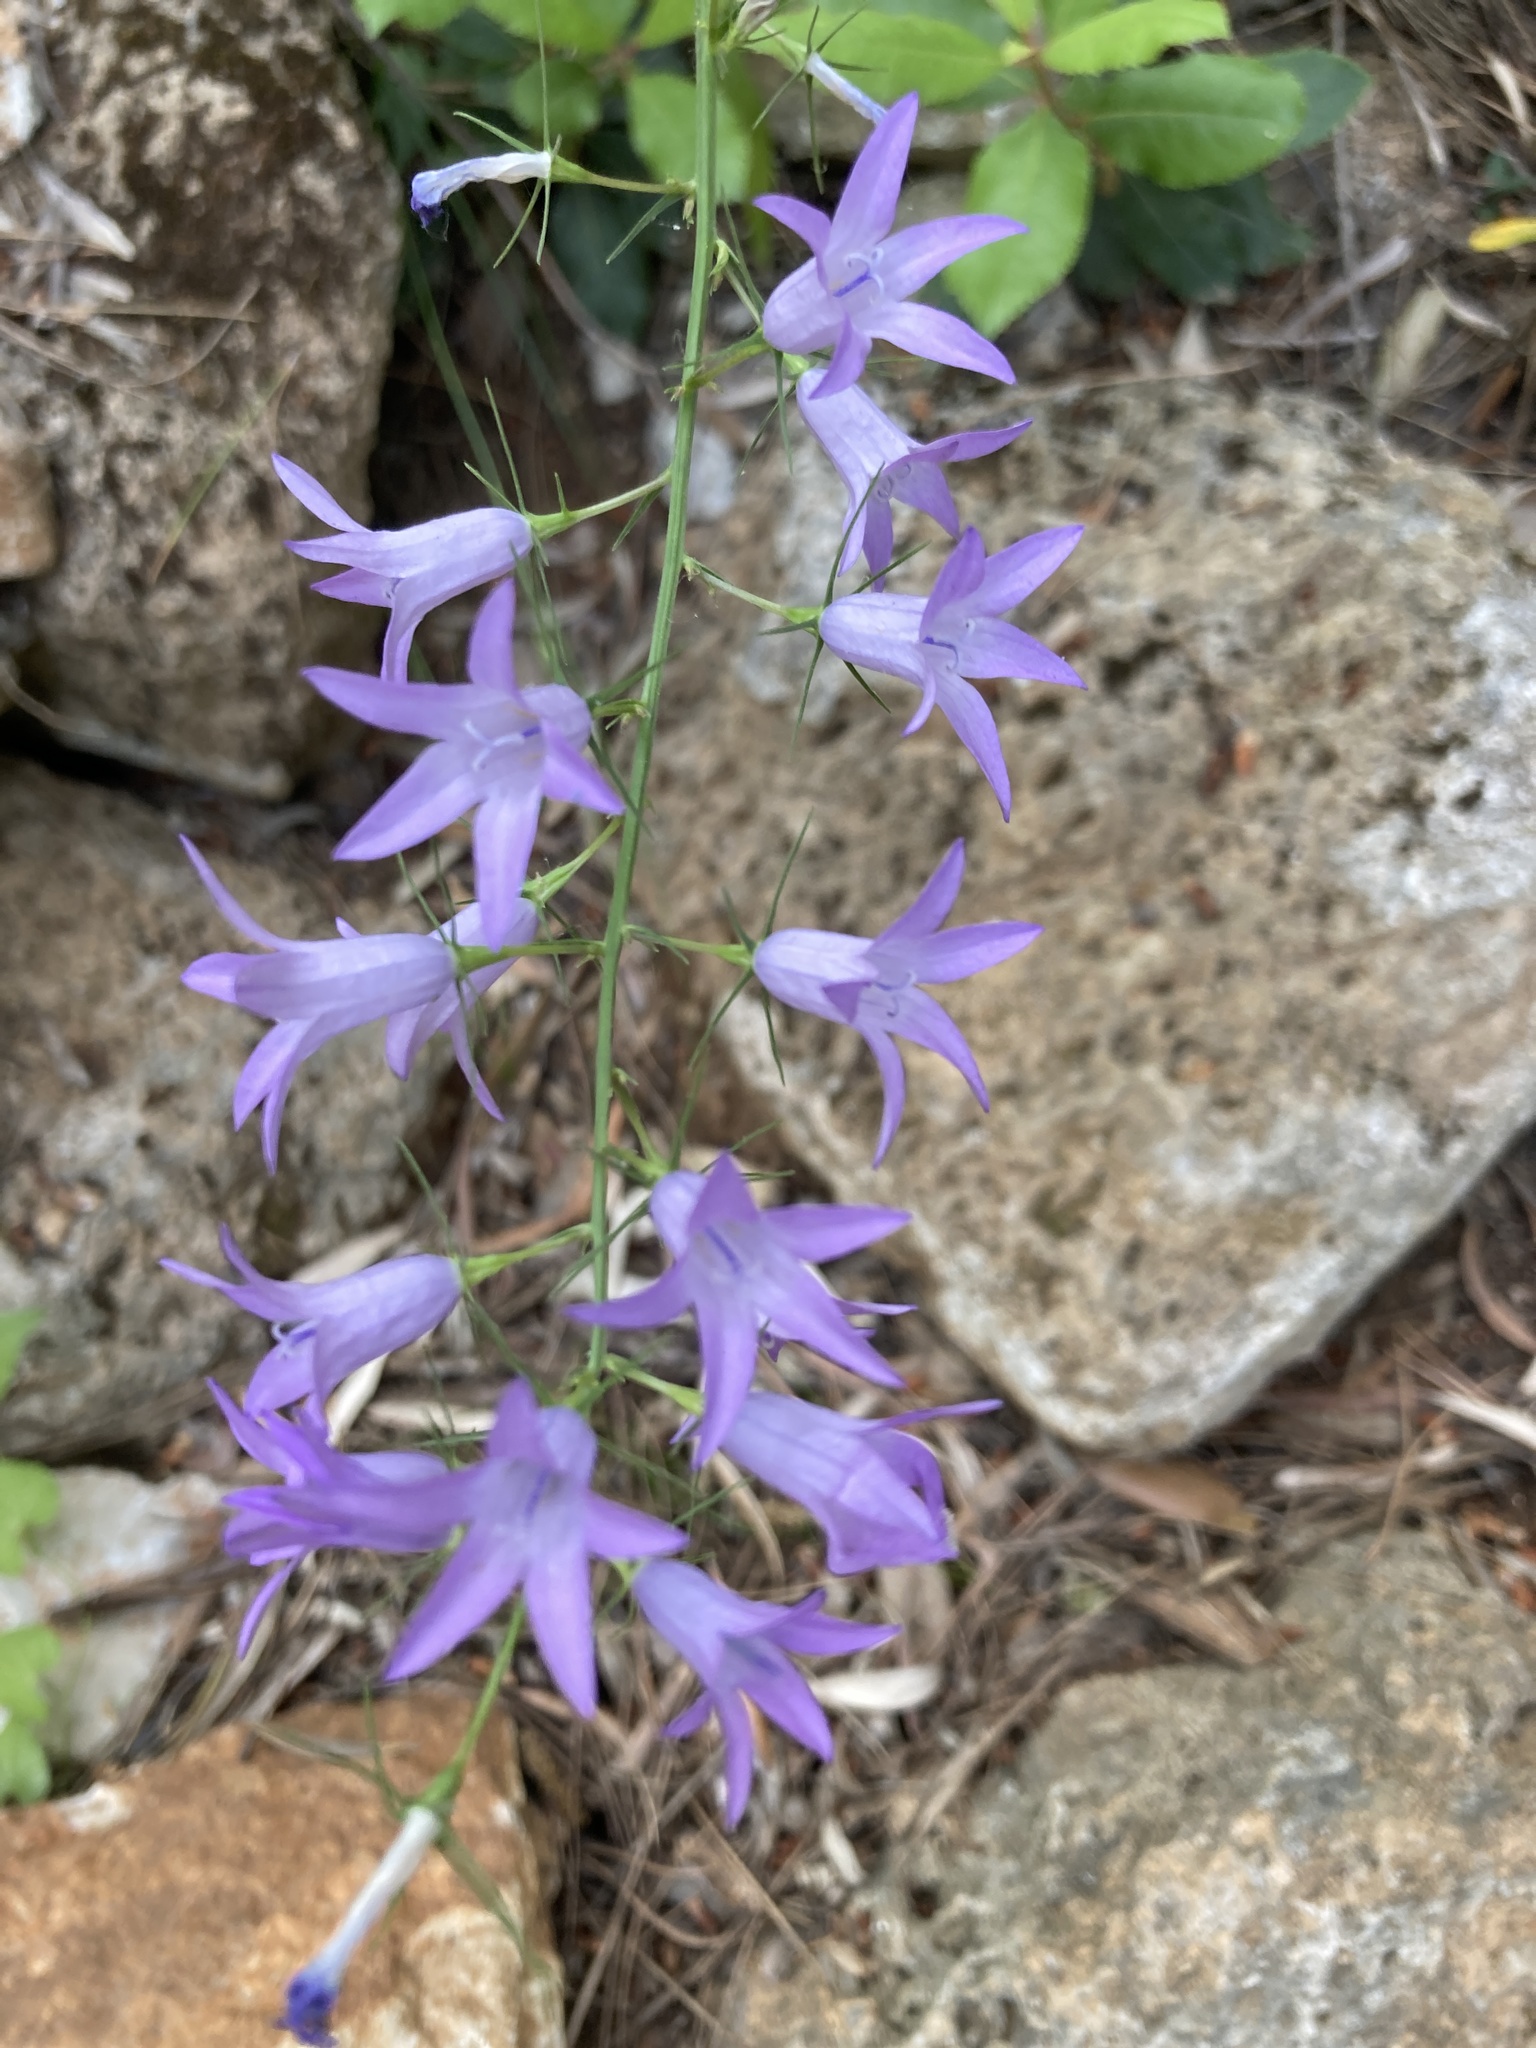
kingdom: Plantae
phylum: Tracheophyta
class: Magnoliopsida
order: Asterales
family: Campanulaceae
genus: Campanula
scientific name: Campanula rapunculus
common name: Rampion bellflower
